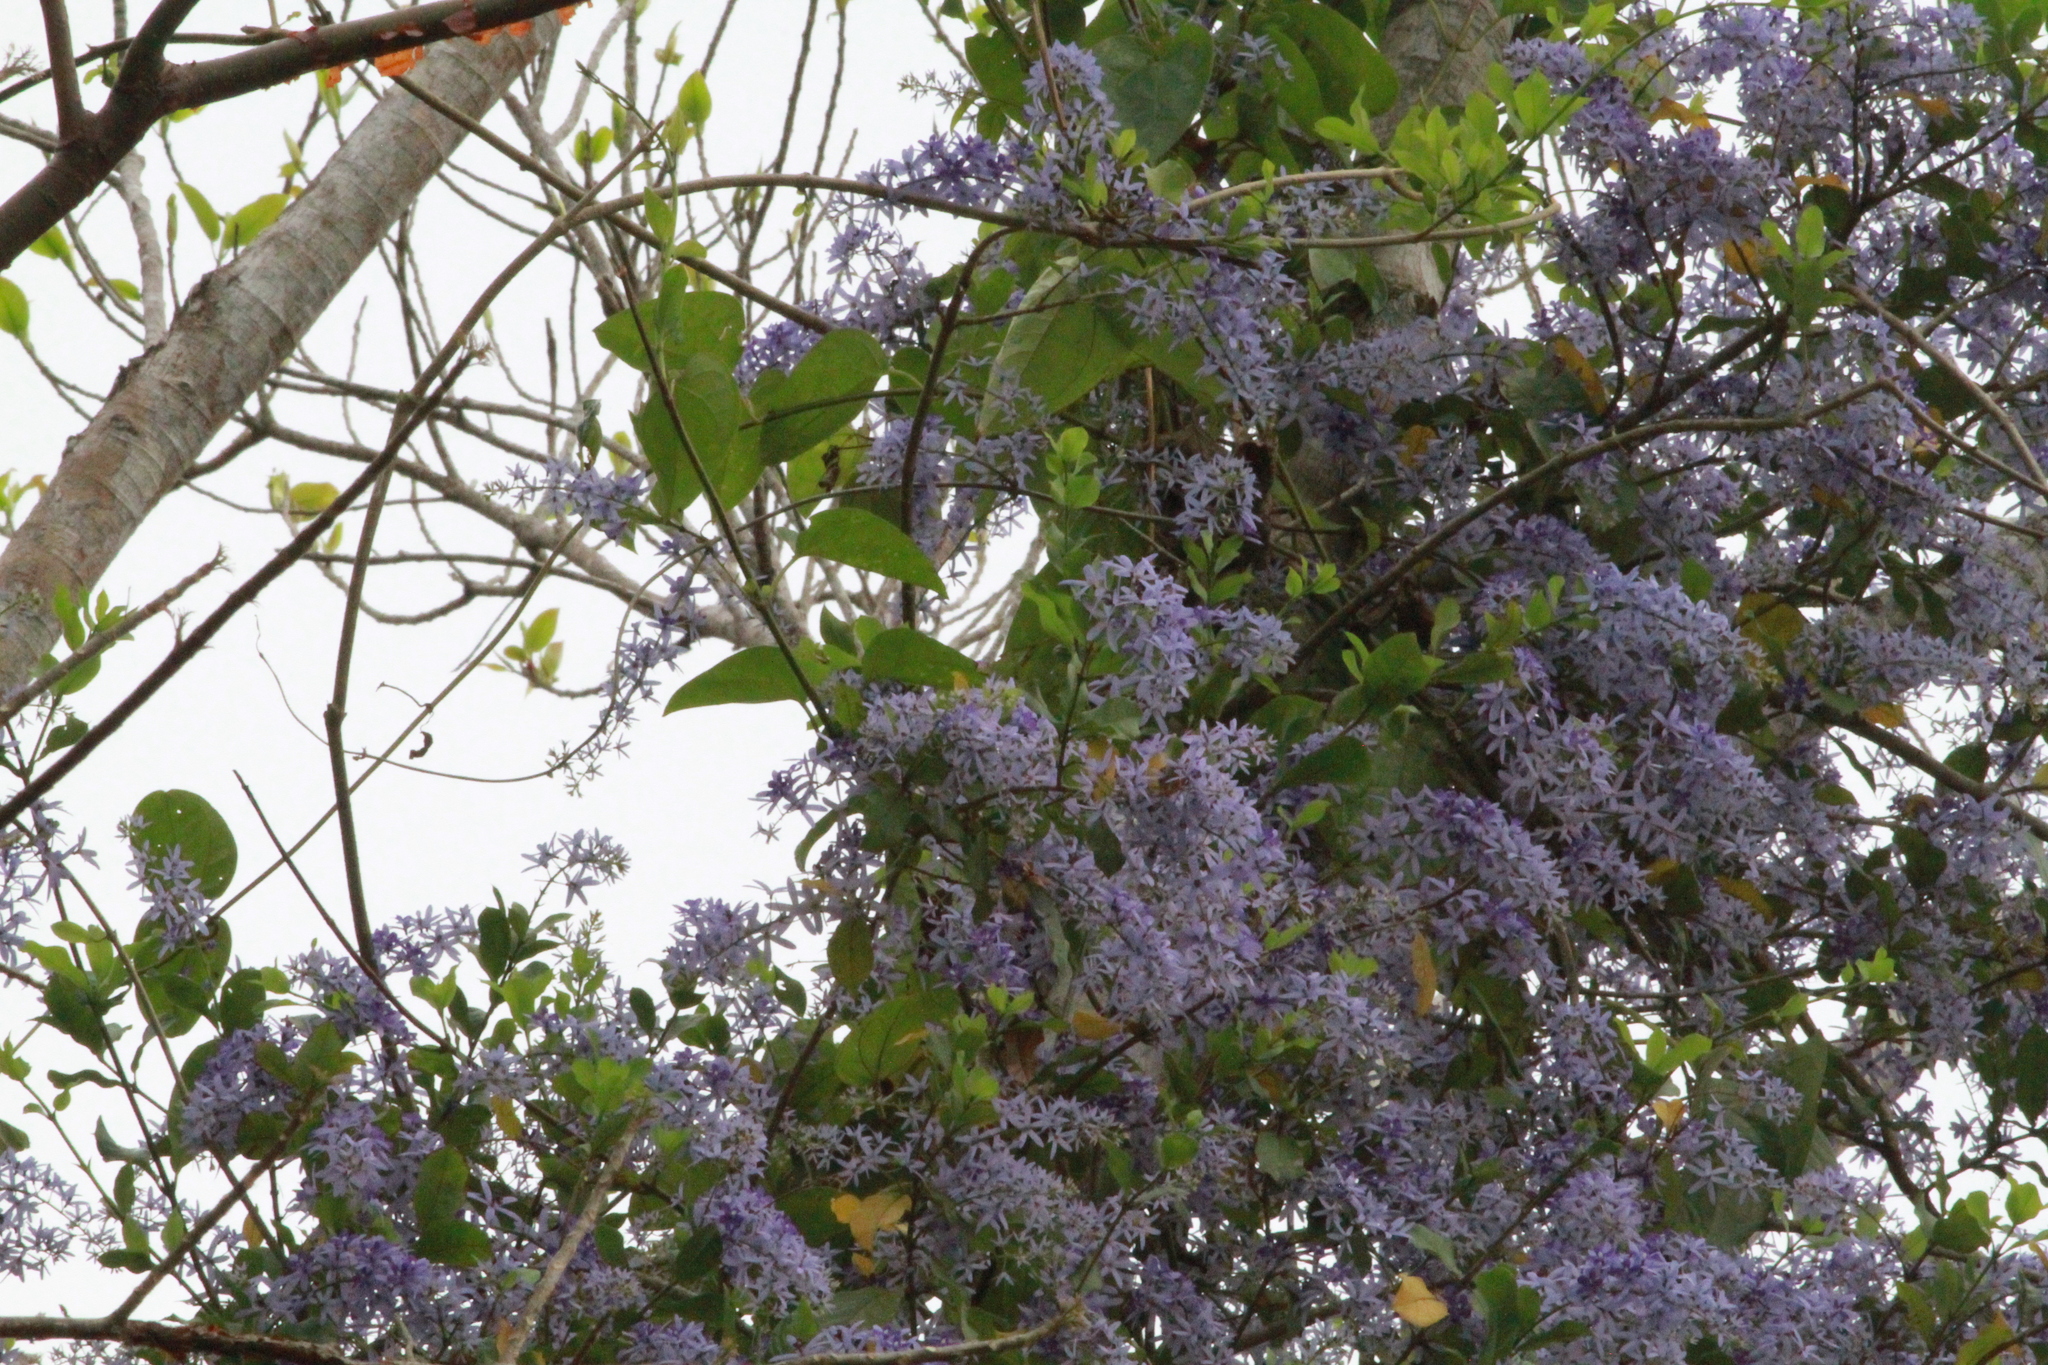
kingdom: Plantae
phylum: Tracheophyta
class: Magnoliopsida
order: Lamiales
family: Verbenaceae
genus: Petrea
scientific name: Petrea volubilis
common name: Queen's-wreath
